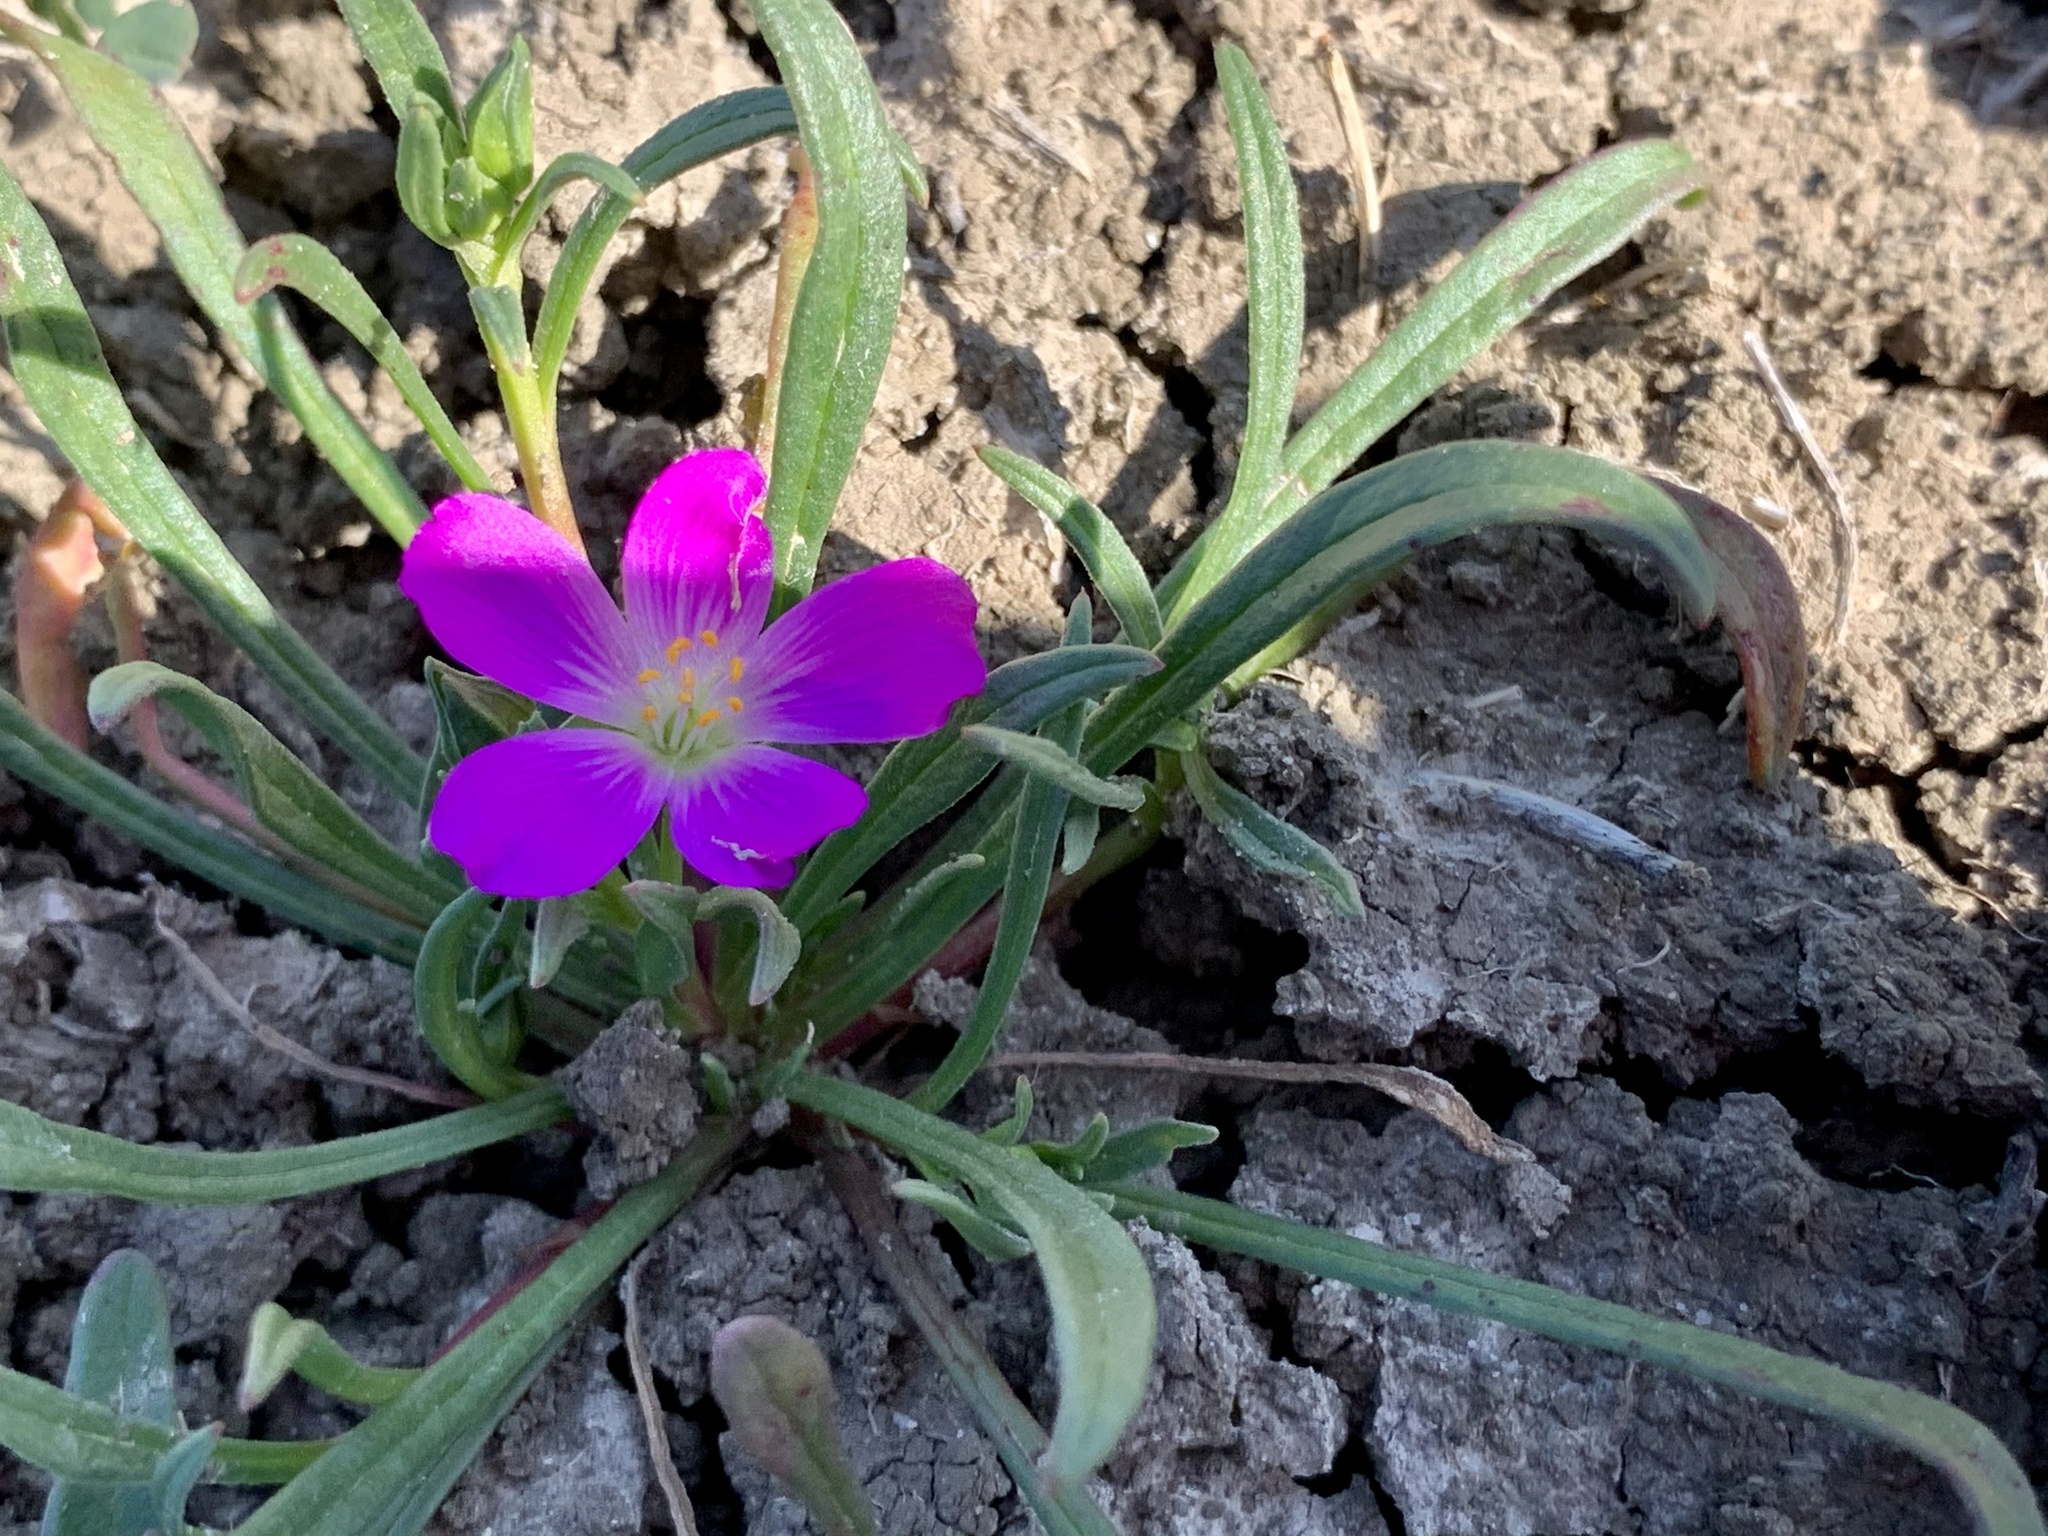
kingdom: Plantae
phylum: Tracheophyta
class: Magnoliopsida
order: Caryophyllales
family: Montiaceae
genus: Calandrinia
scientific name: Calandrinia menziesii
